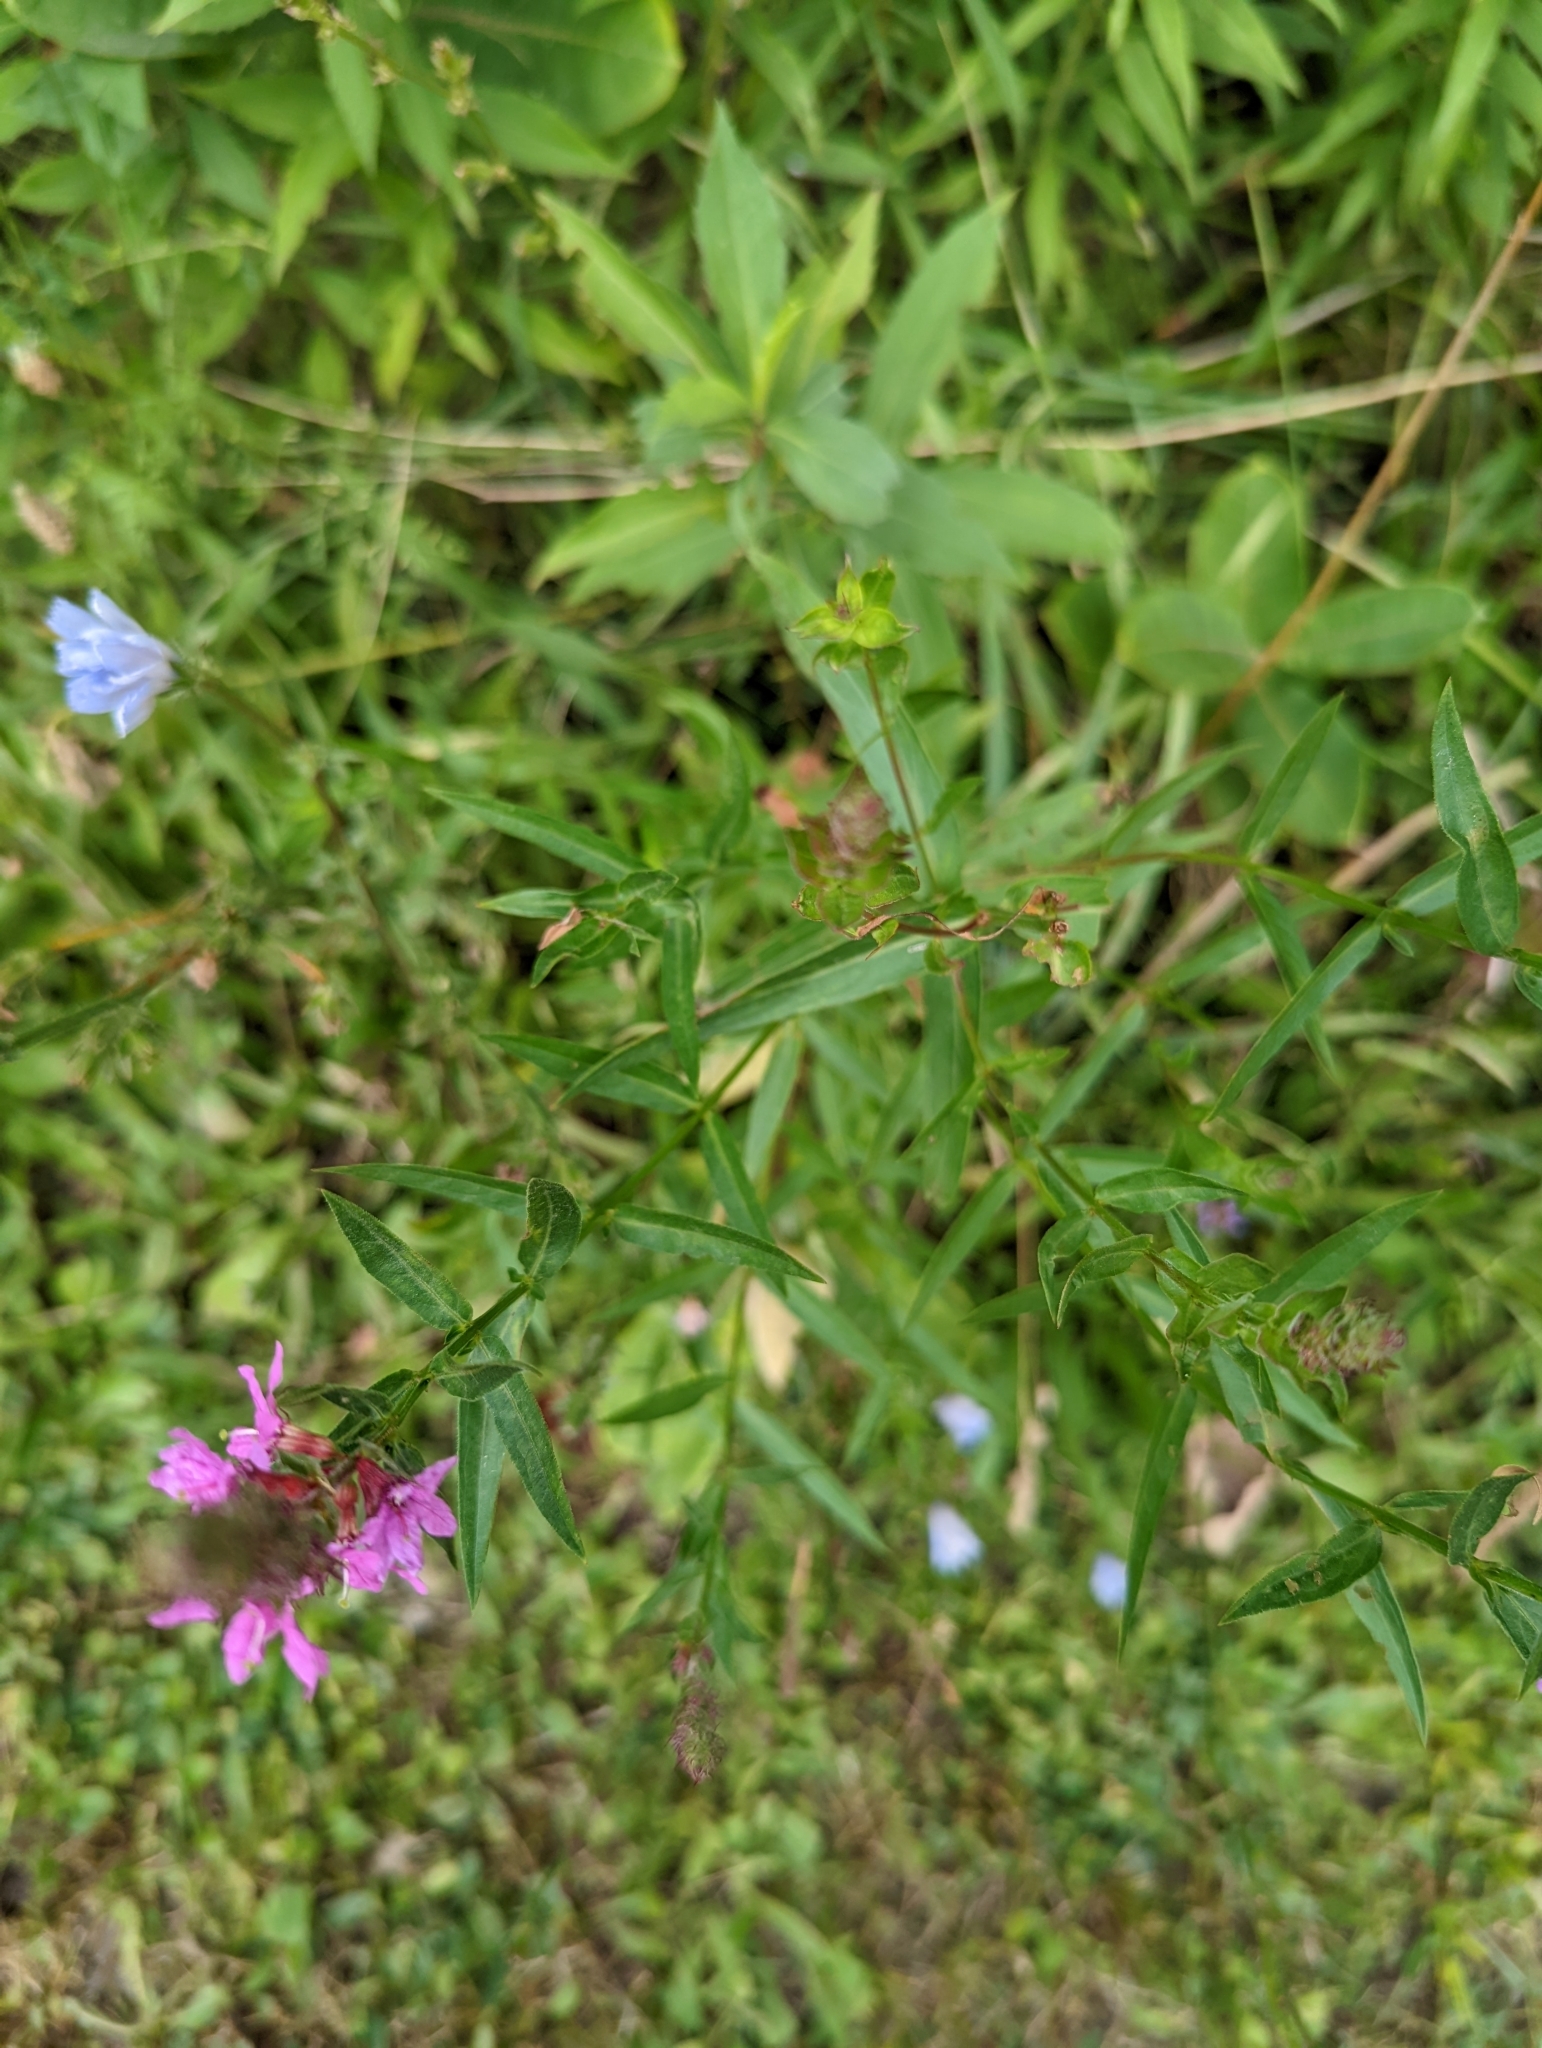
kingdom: Plantae
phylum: Tracheophyta
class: Magnoliopsida
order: Myrtales
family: Lythraceae
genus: Lythrum
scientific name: Lythrum salicaria
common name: Purple loosestrife
